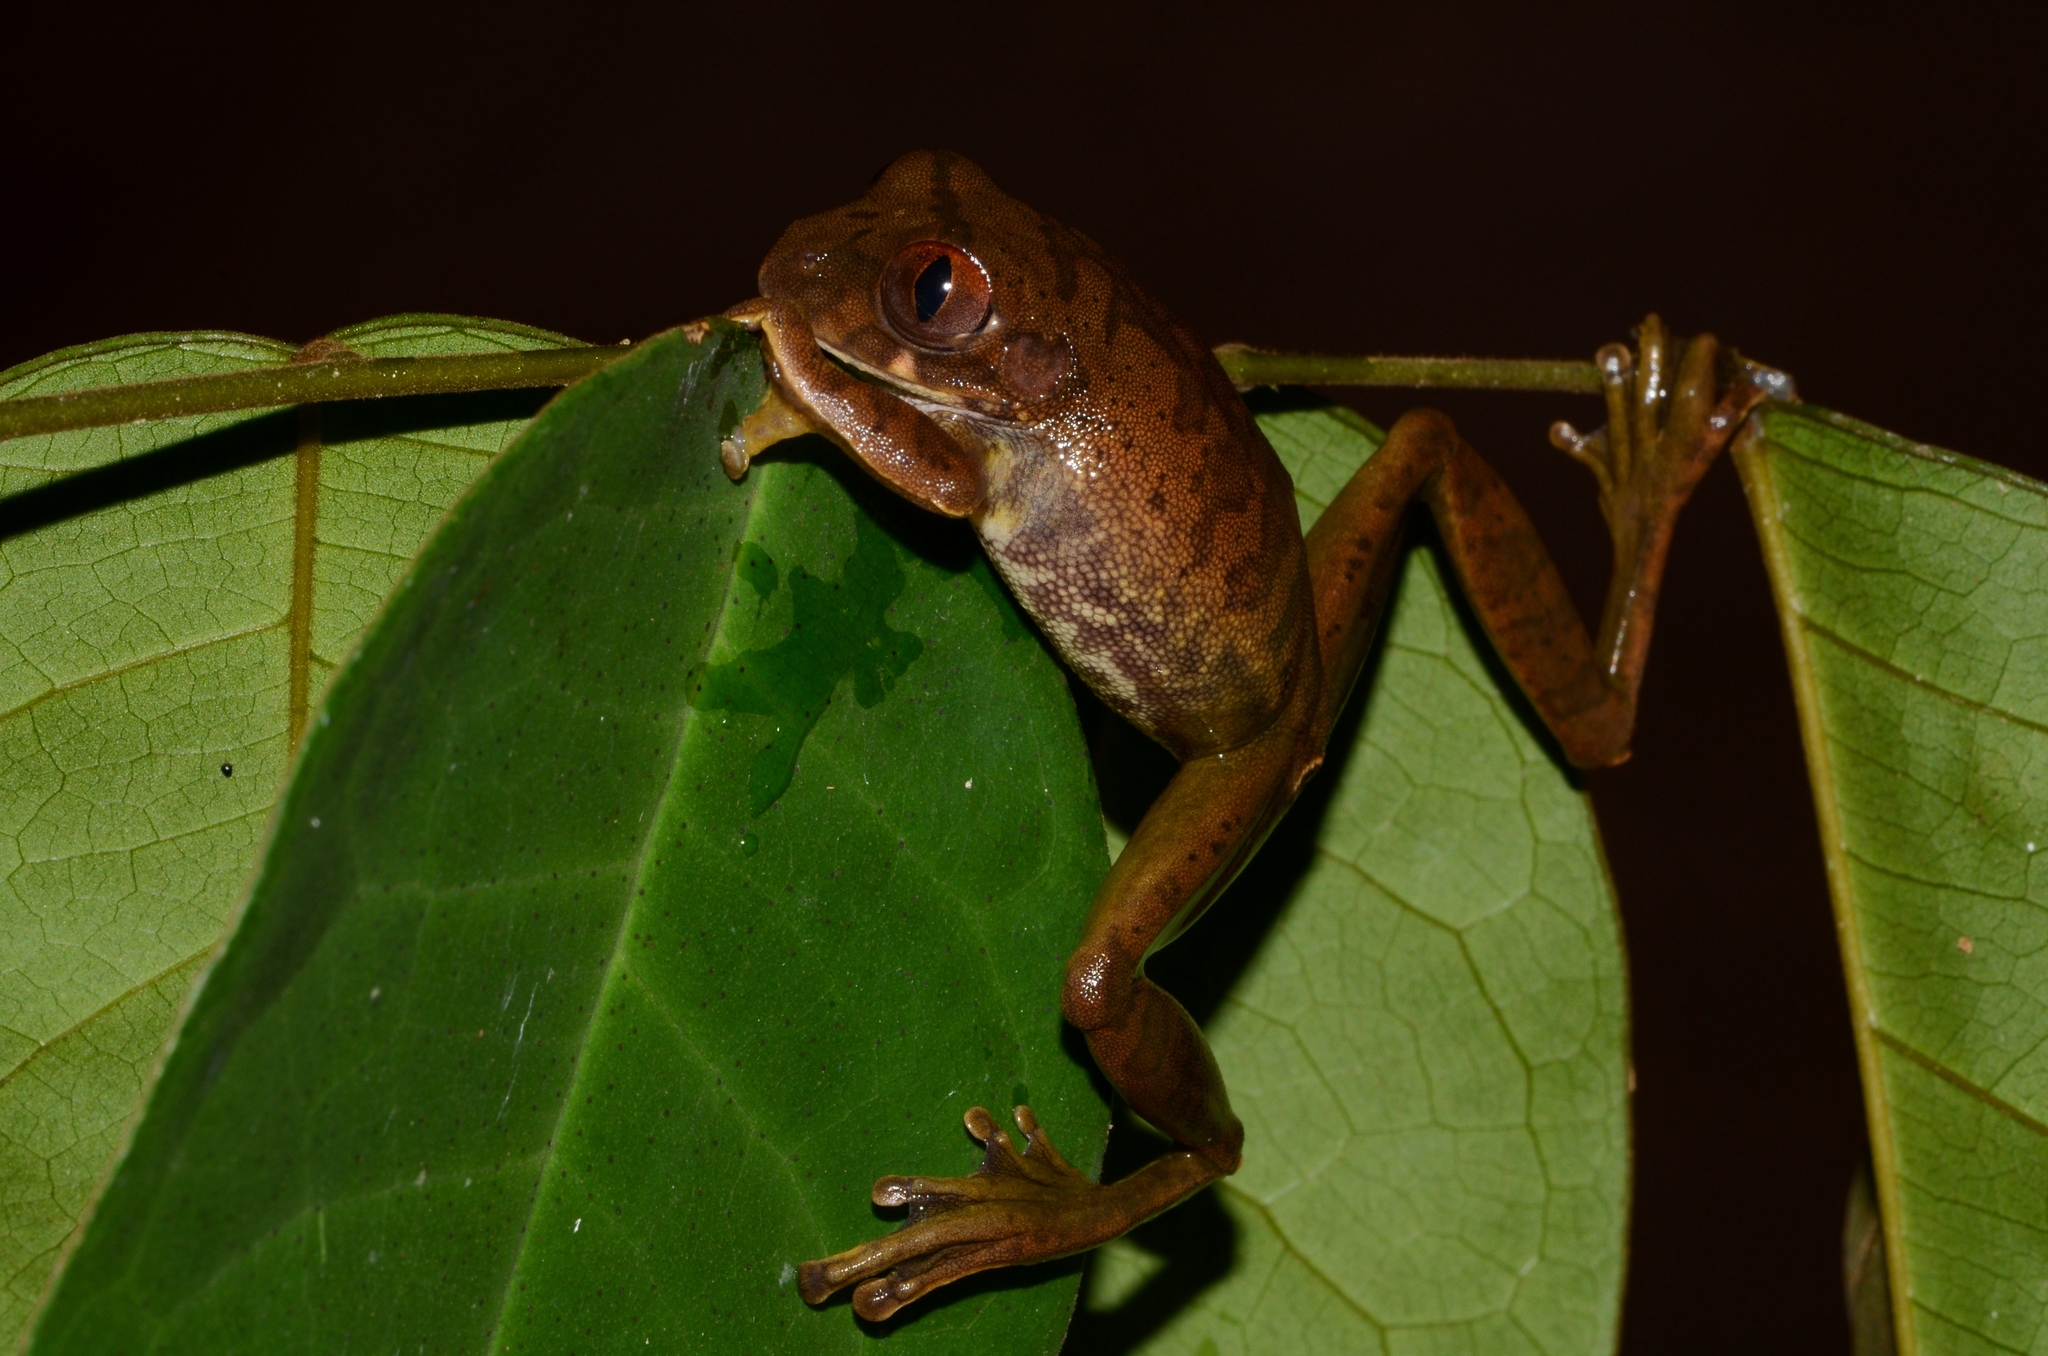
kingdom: Animalia
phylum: Chordata
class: Amphibia
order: Anura
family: Arthroleptidae
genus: Leptopelis
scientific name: Leptopelis boulengeri
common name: Victoria forest treefrog
